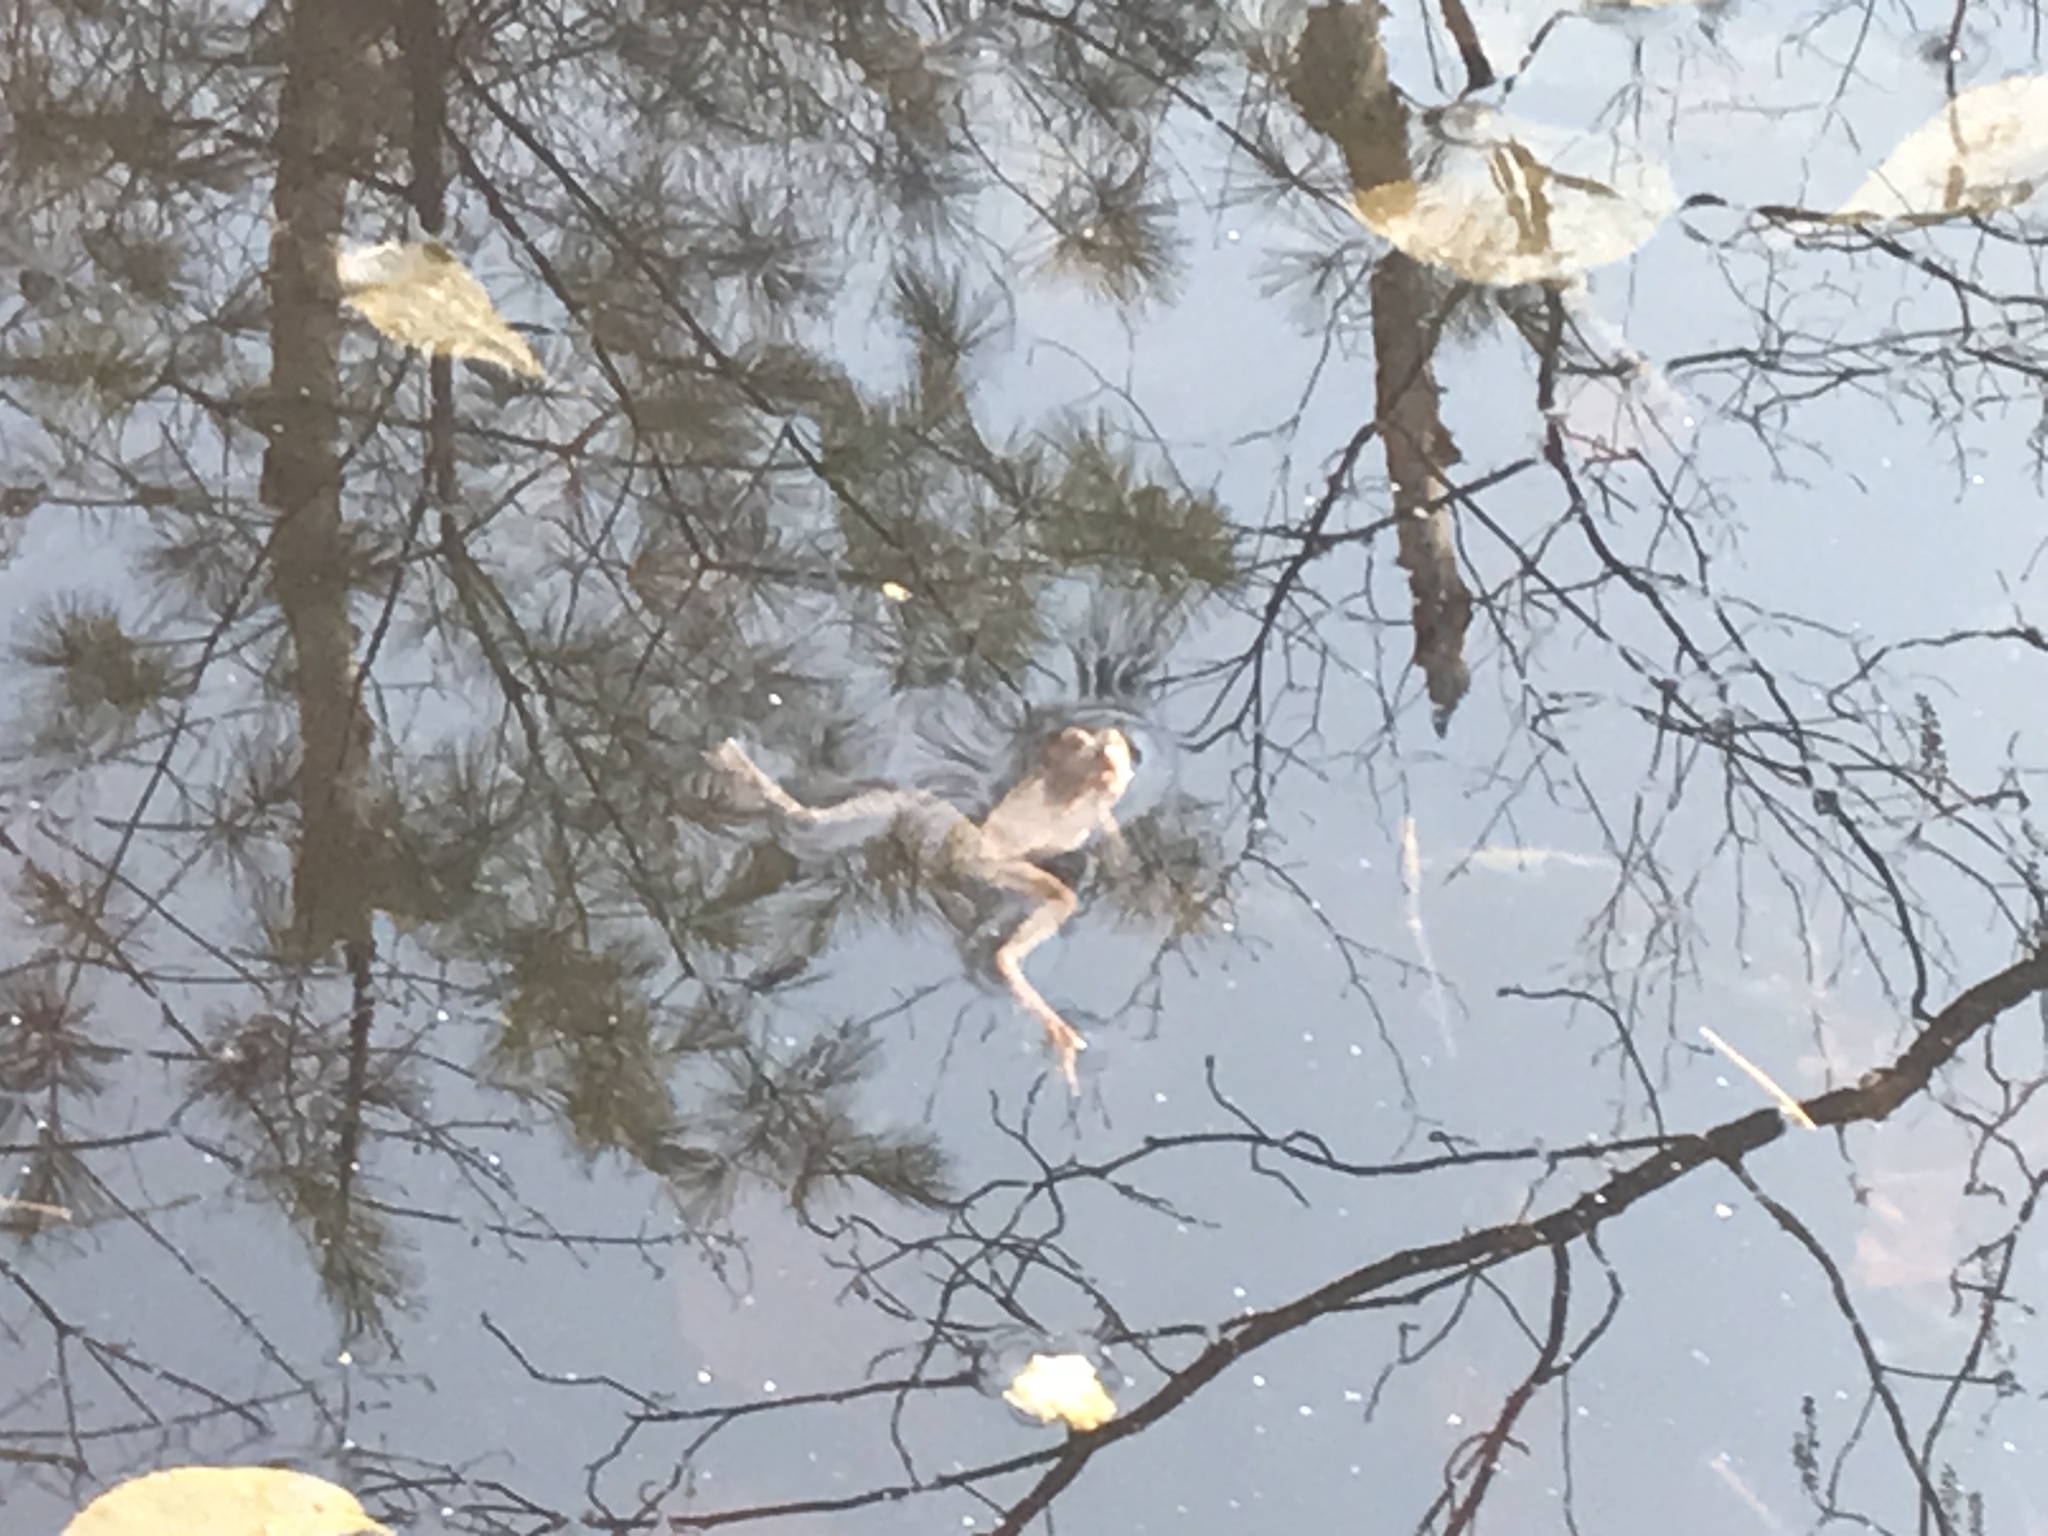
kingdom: Animalia
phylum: Chordata
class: Amphibia
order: Anura
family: Ranidae
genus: Lithobates
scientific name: Lithobates sylvaticus
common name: Wood frog
